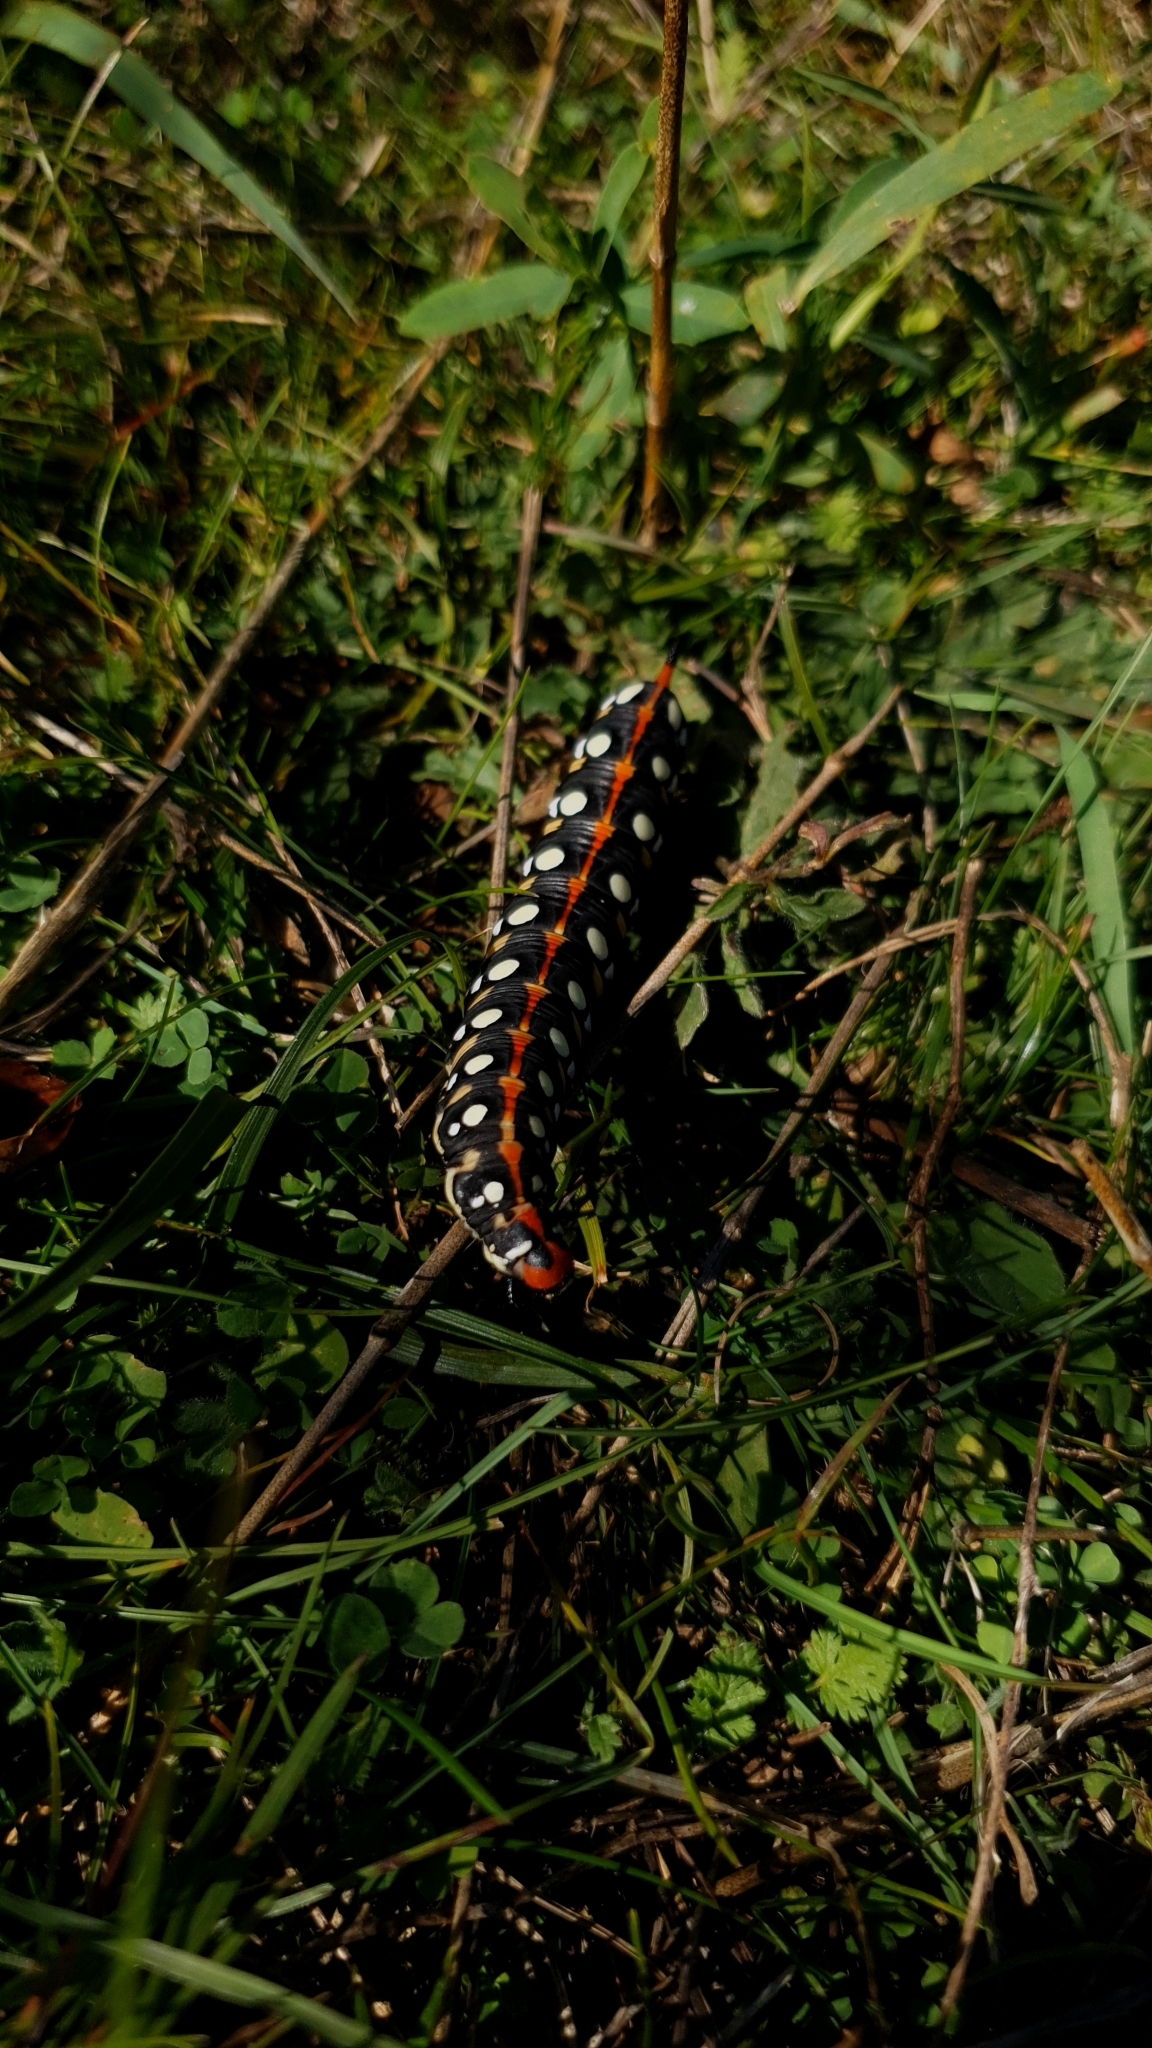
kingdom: Animalia
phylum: Arthropoda
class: Insecta
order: Lepidoptera
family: Sphingidae
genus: Hyles
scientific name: Hyles euphorbiae
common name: Spurge hawk-moth
